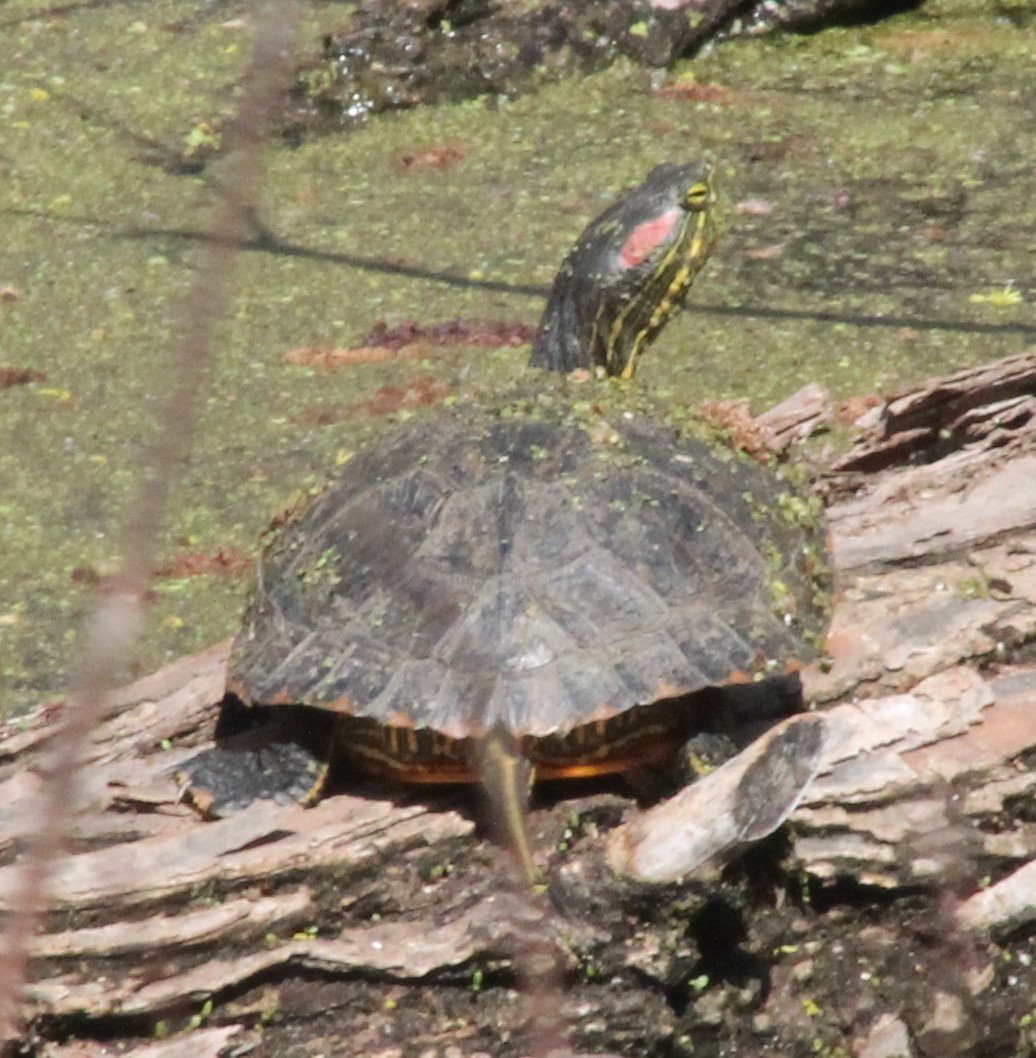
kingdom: Animalia
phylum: Chordata
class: Testudines
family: Emydidae
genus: Trachemys
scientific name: Trachemys scripta
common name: Slider
